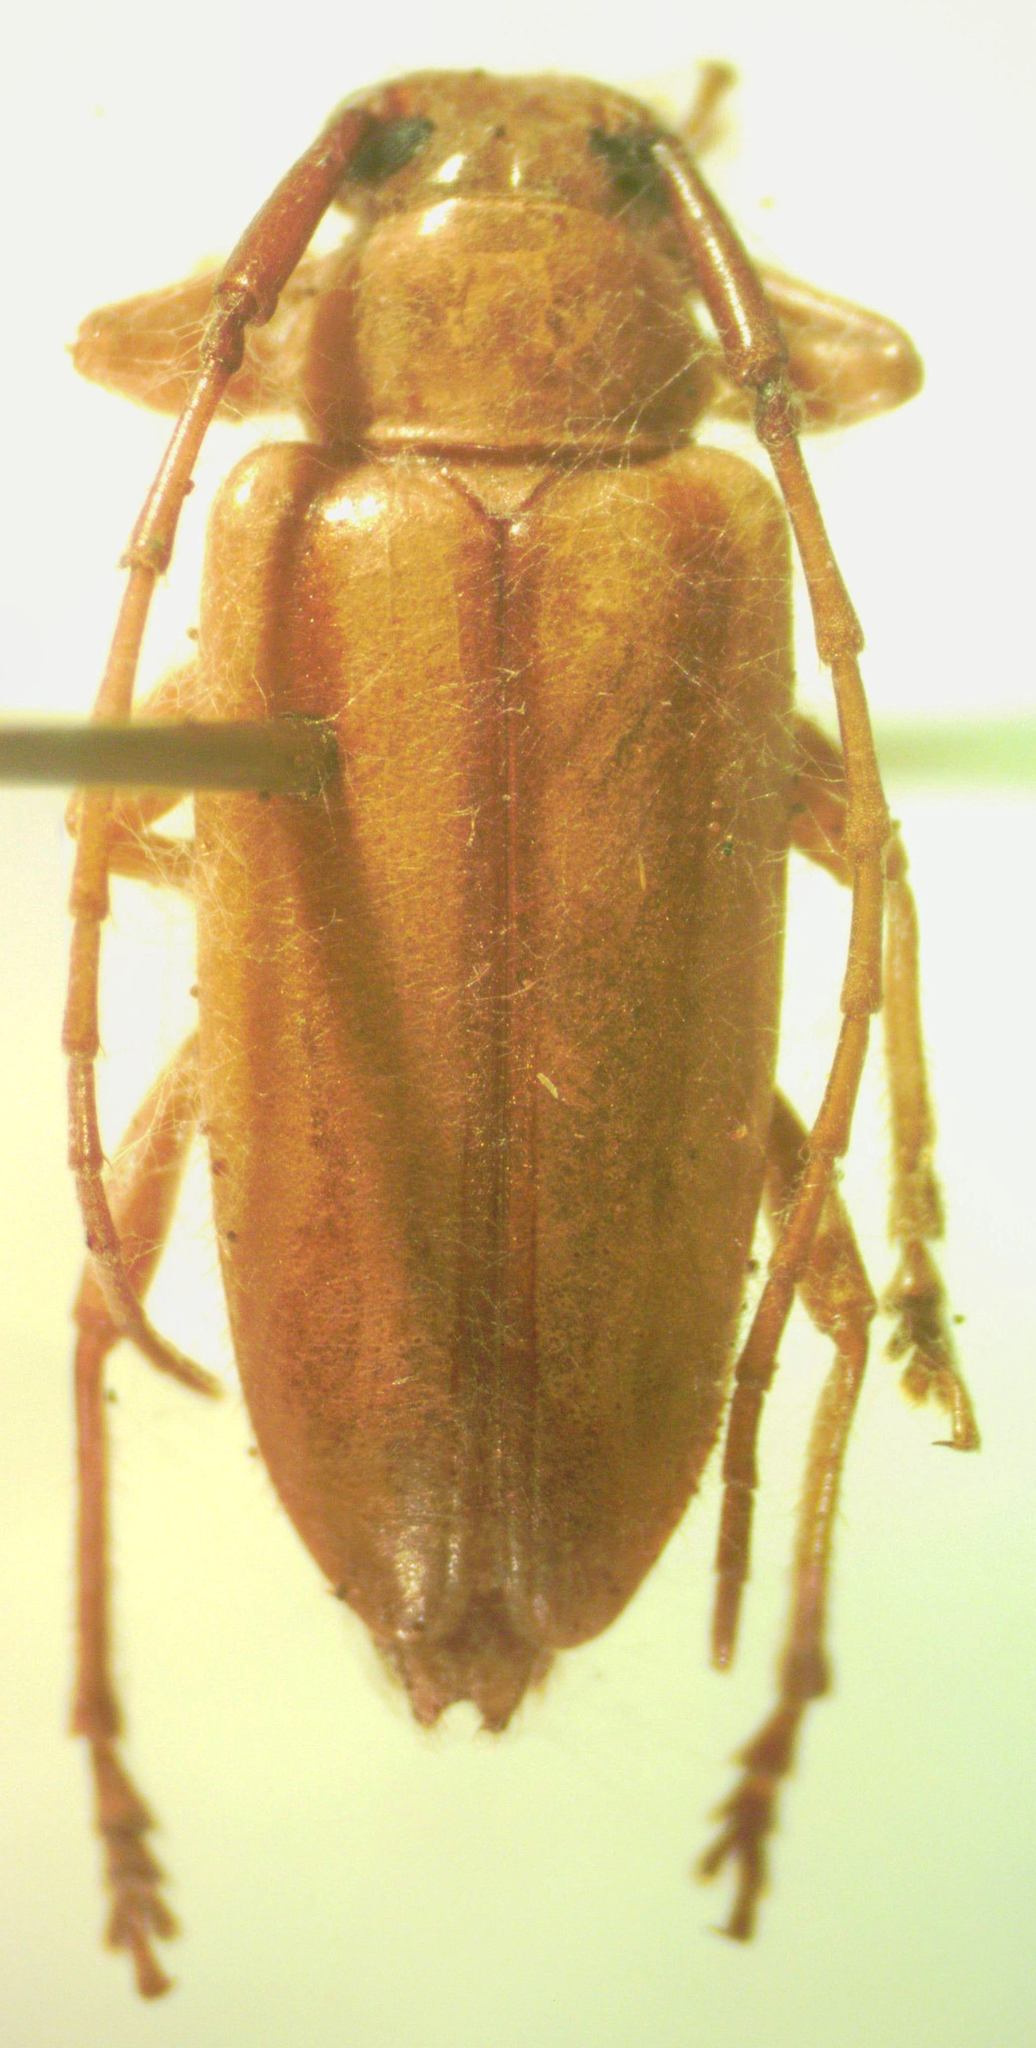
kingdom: Animalia
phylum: Arthropoda
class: Insecta
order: Coleoptera
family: Cerambycidae
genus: Tenthras
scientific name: Tenthras obliteratus
